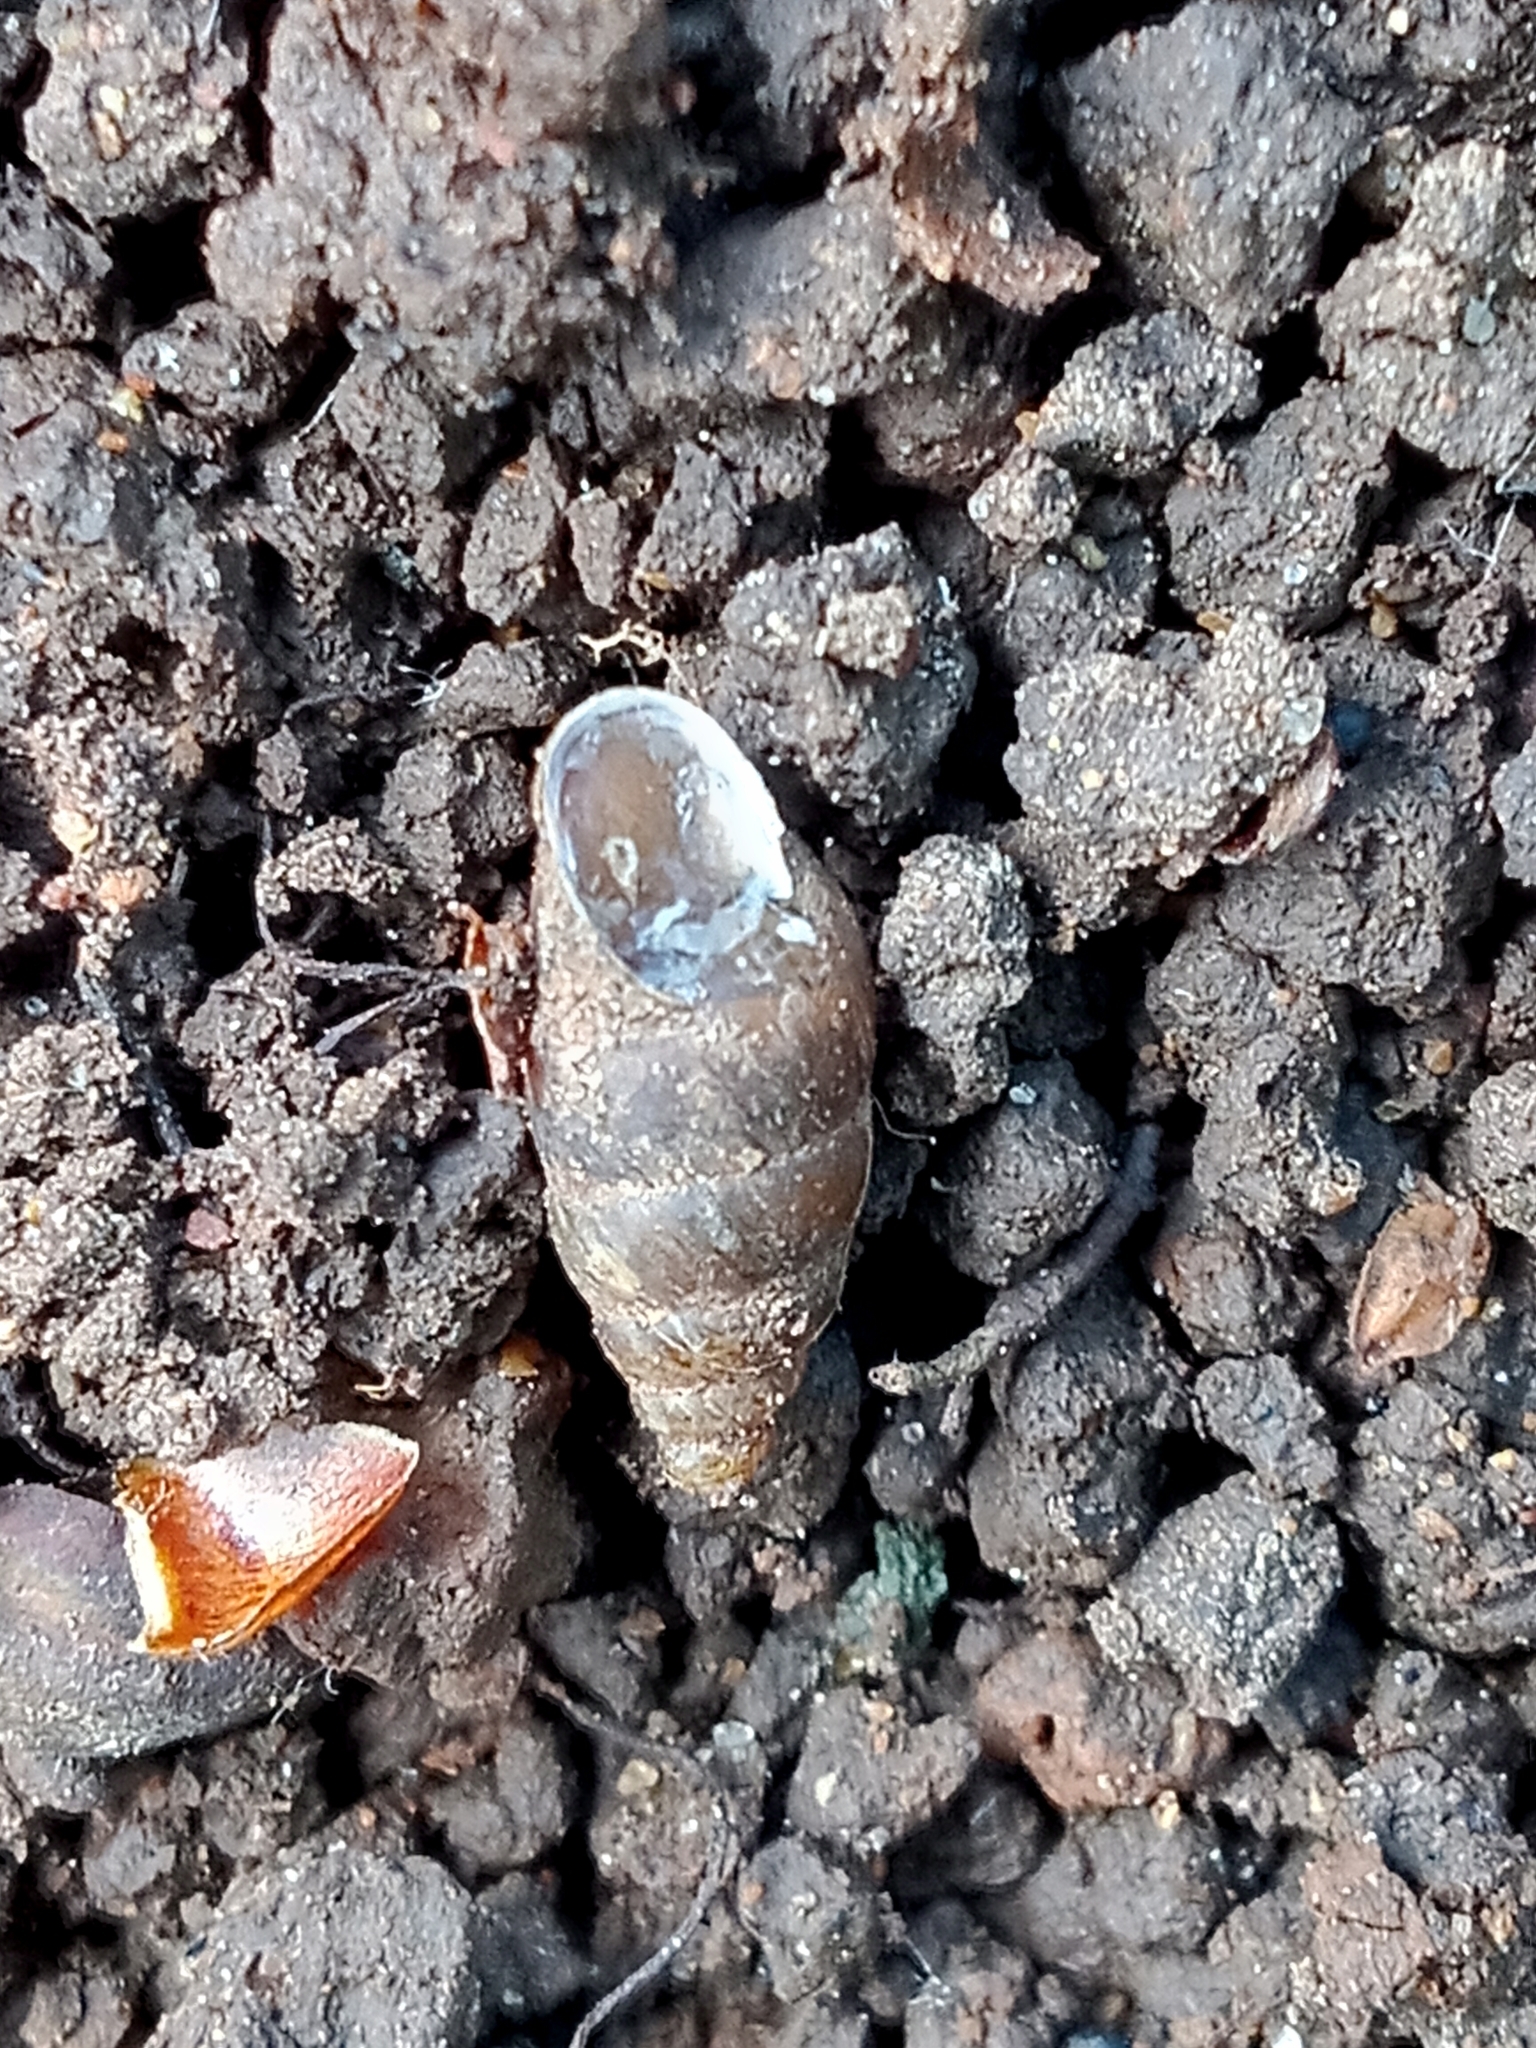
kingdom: Animalia
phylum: Mollusca
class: Gastropoda
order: Stylommatophora
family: Enidae
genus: Merdigera
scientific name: Merdigera obscura
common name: Lesser bulin
